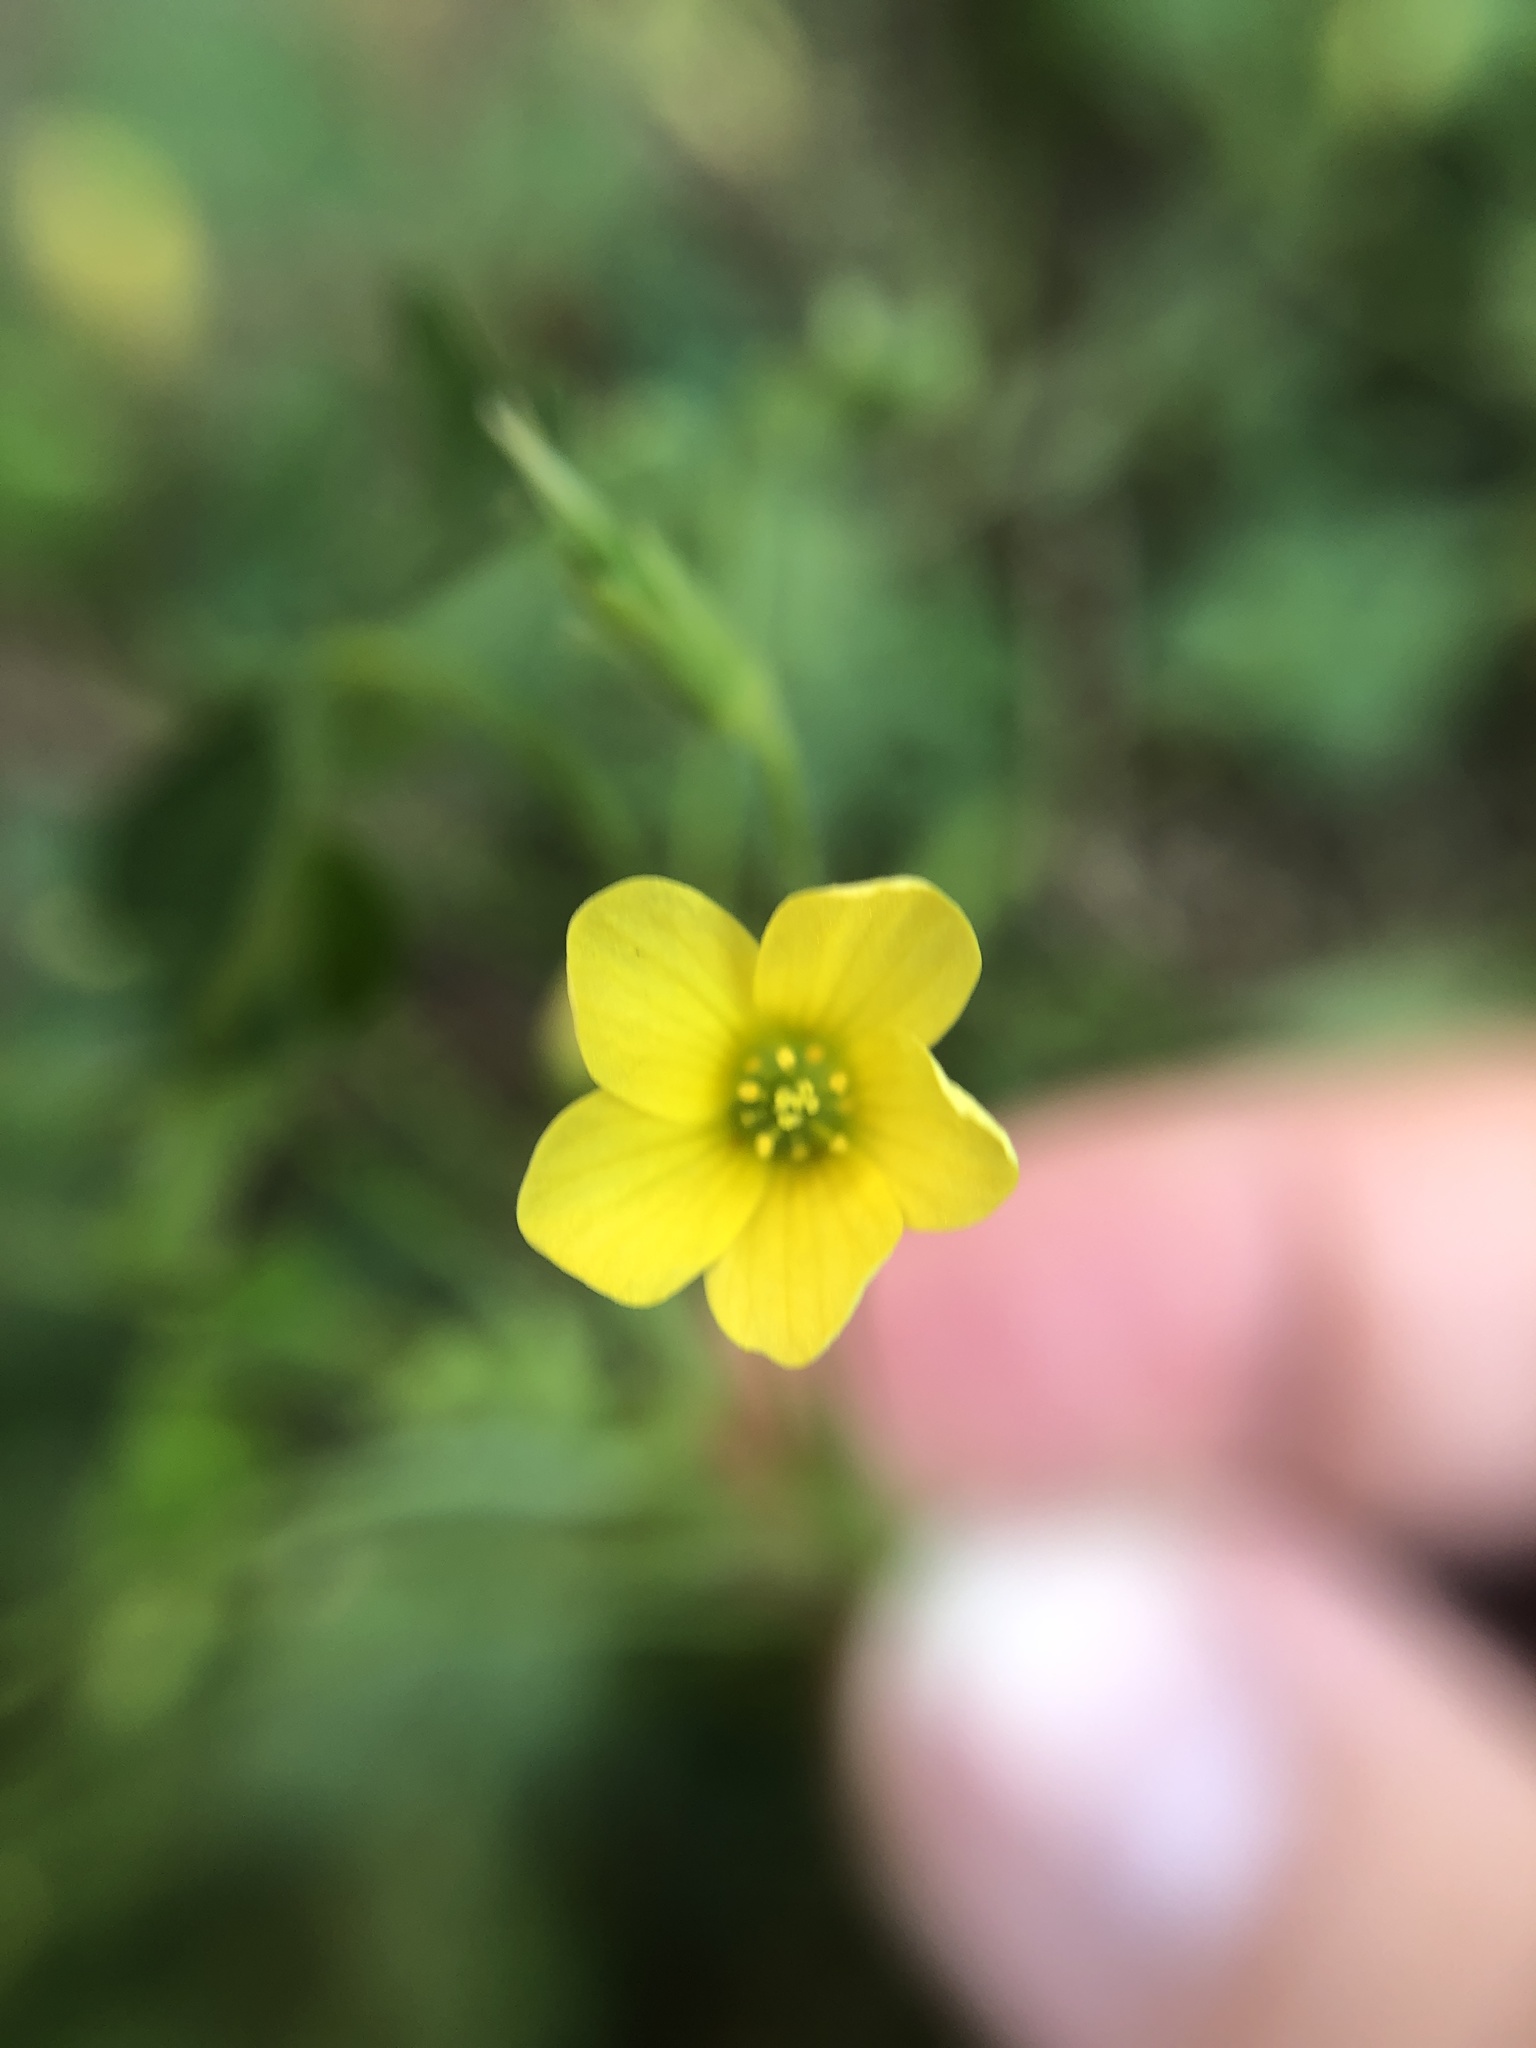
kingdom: Plantae
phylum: Tracheophyta
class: Magnoliopsida
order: Oxalidales
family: Oxalidaceae
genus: Oxalis
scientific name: Oxalis stricta
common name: Upright yellow-sorrel
